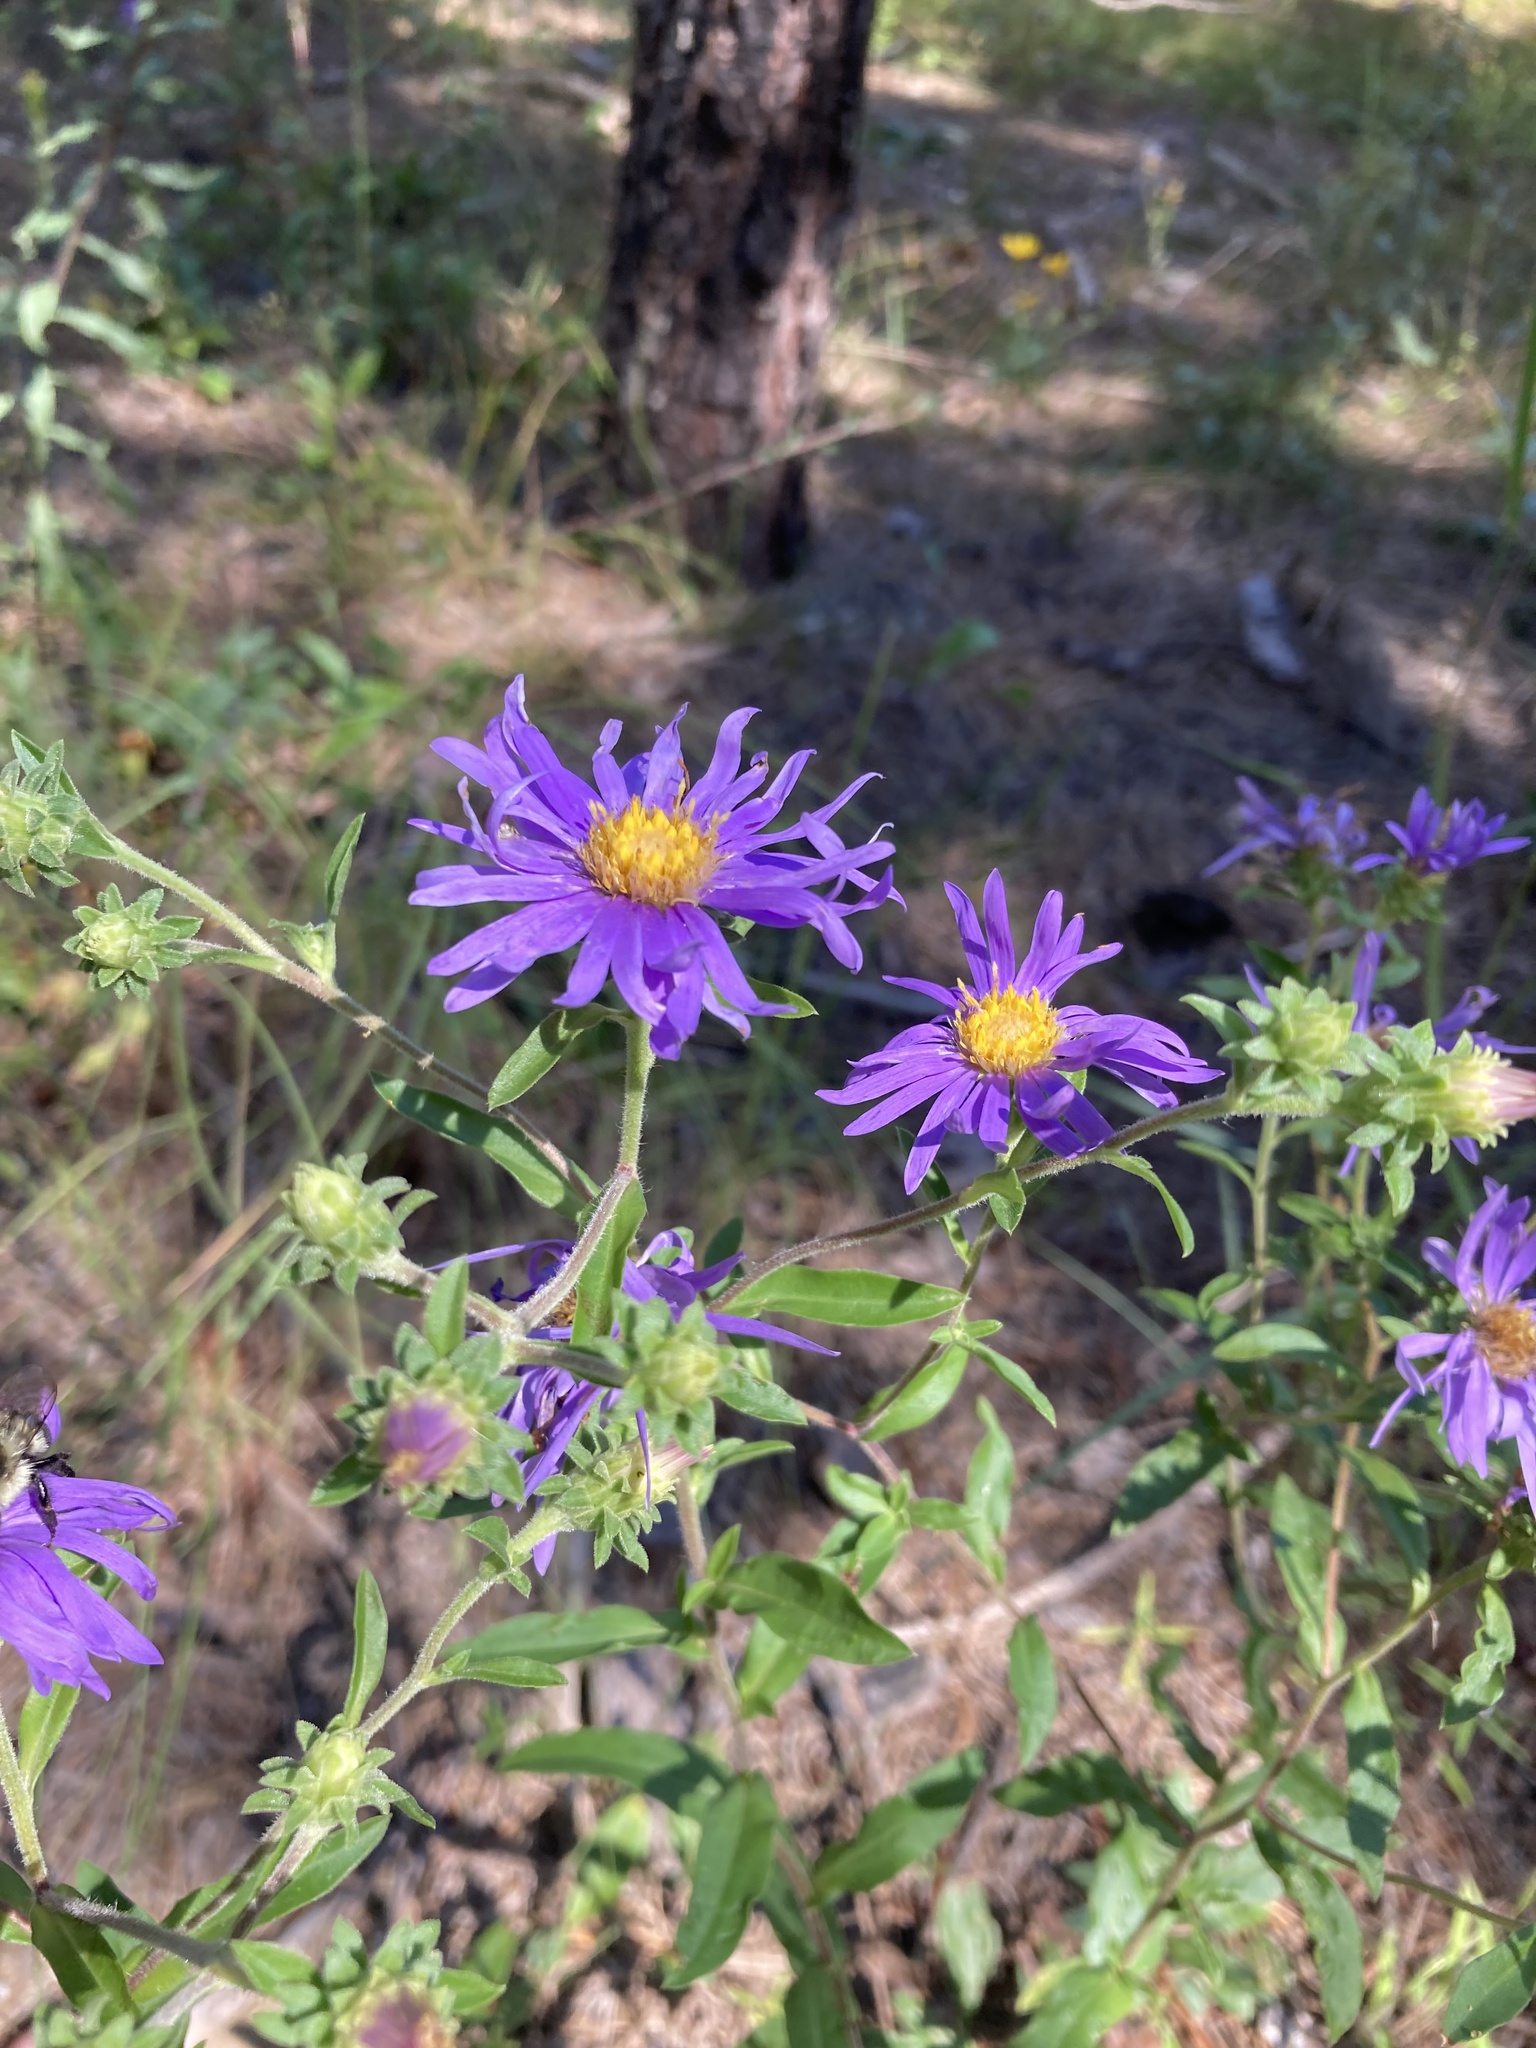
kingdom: Plantae
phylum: Tracheophyta
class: Magnoliopsida
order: Asterales
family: Asteraceae
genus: Eurybia
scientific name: Eurybia spectabilis
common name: Low showy aster
